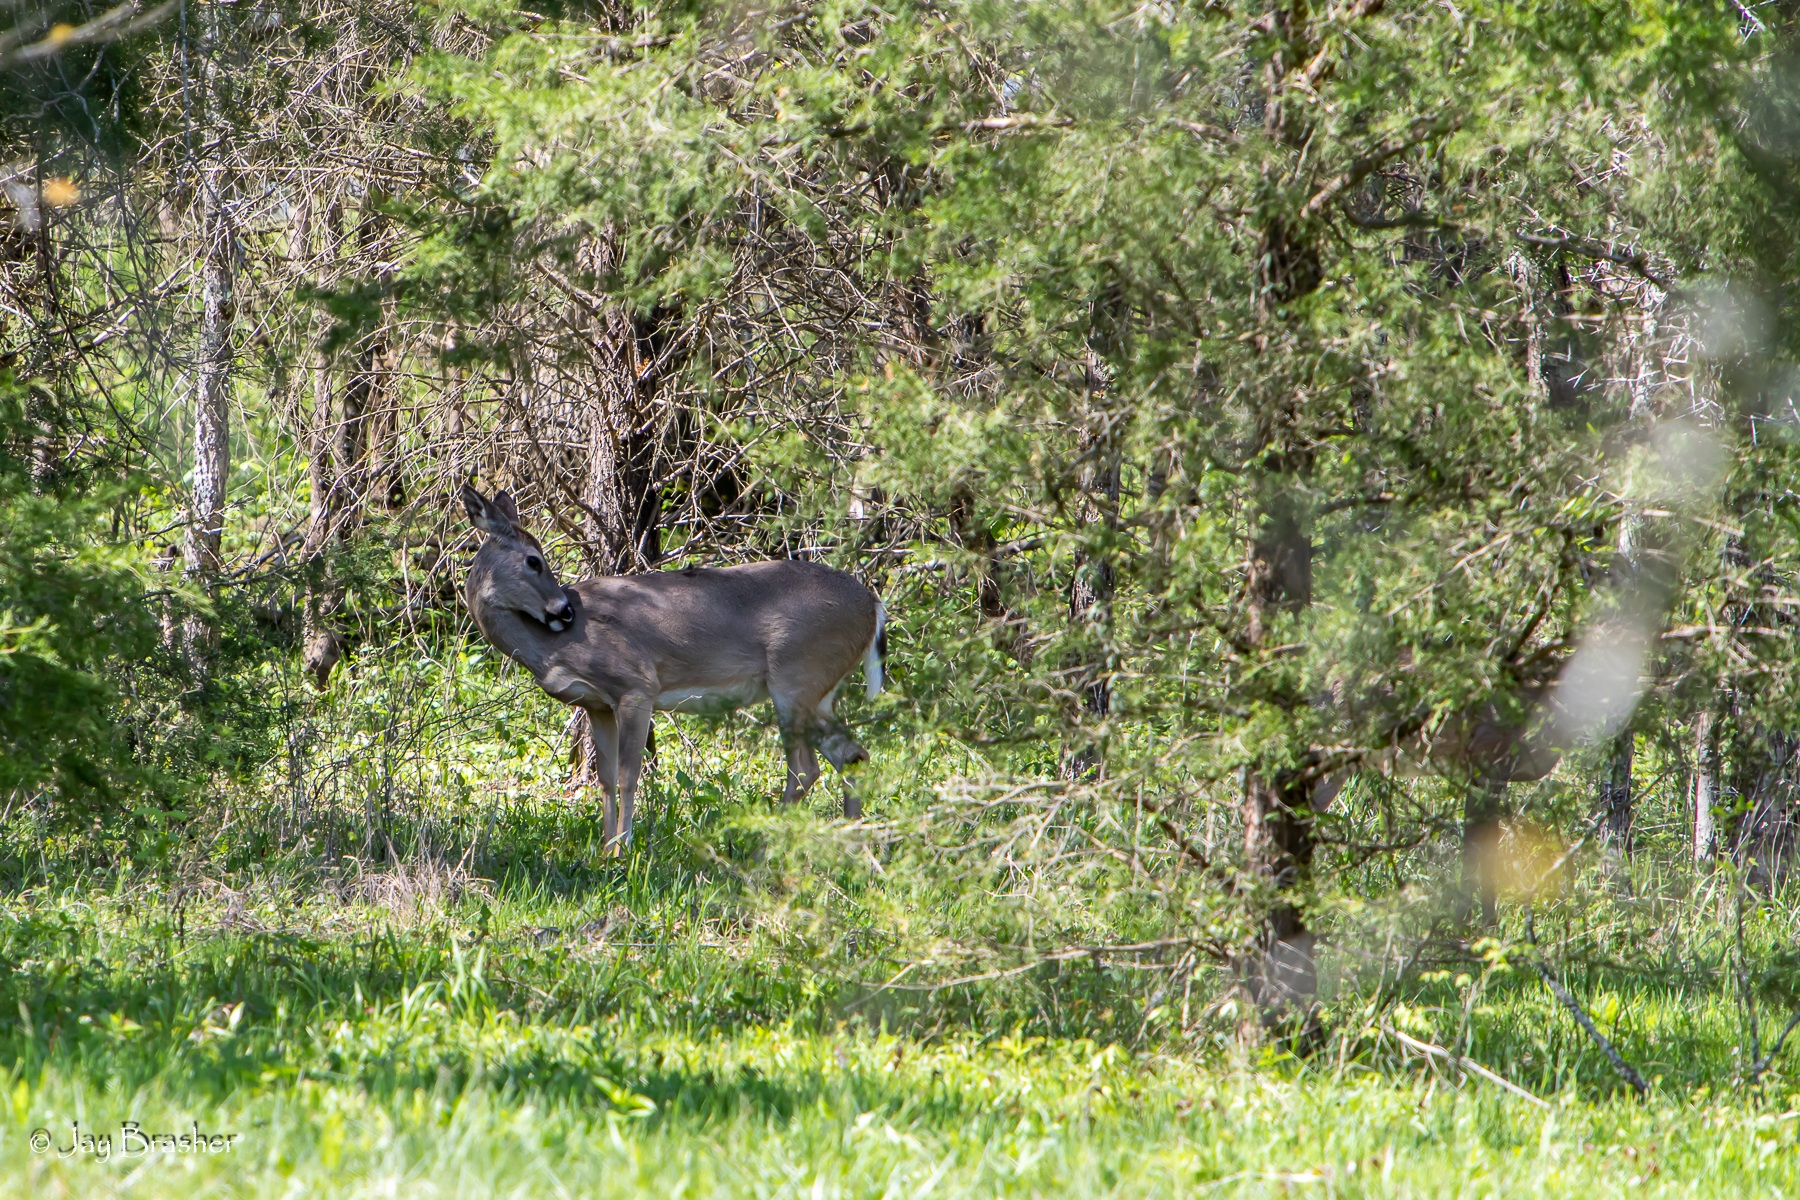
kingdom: Animalia
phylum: Chordata
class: Mammalia
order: Artiodactyla
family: Cervidae
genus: Odocoileus
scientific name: Odocoileus virginianus
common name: White-tailed deer
